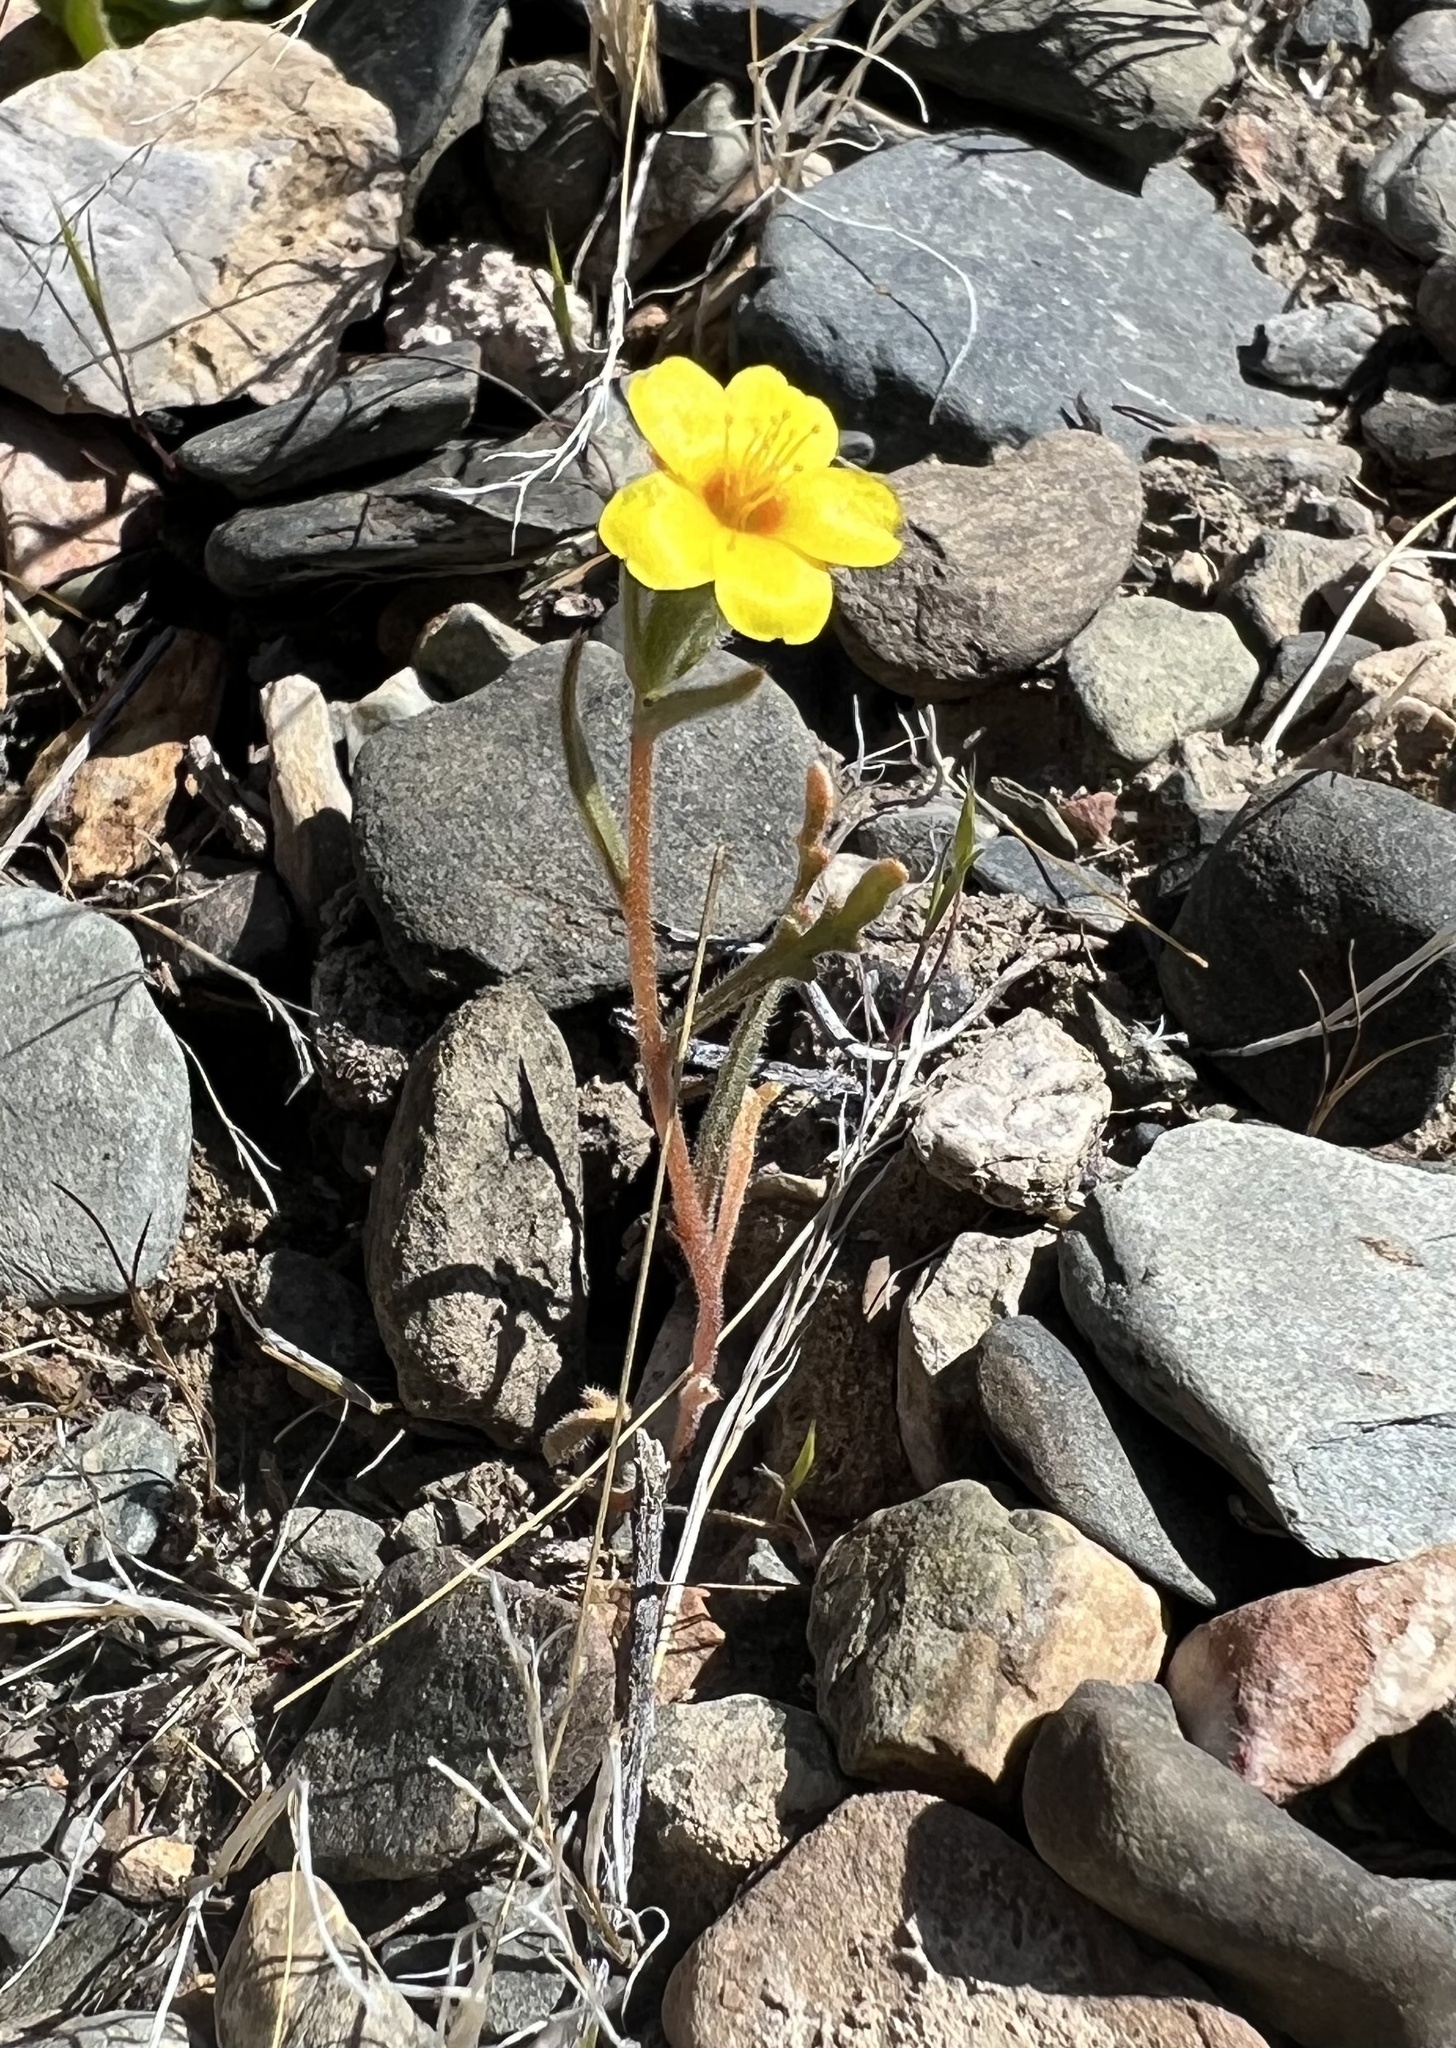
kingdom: Plantae
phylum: Tracheophyta
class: Magnoliopsida
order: Cornales
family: Loasaceae
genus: Mentzelia
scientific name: Mentzelia albicaulis
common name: White-stem blazingstar
